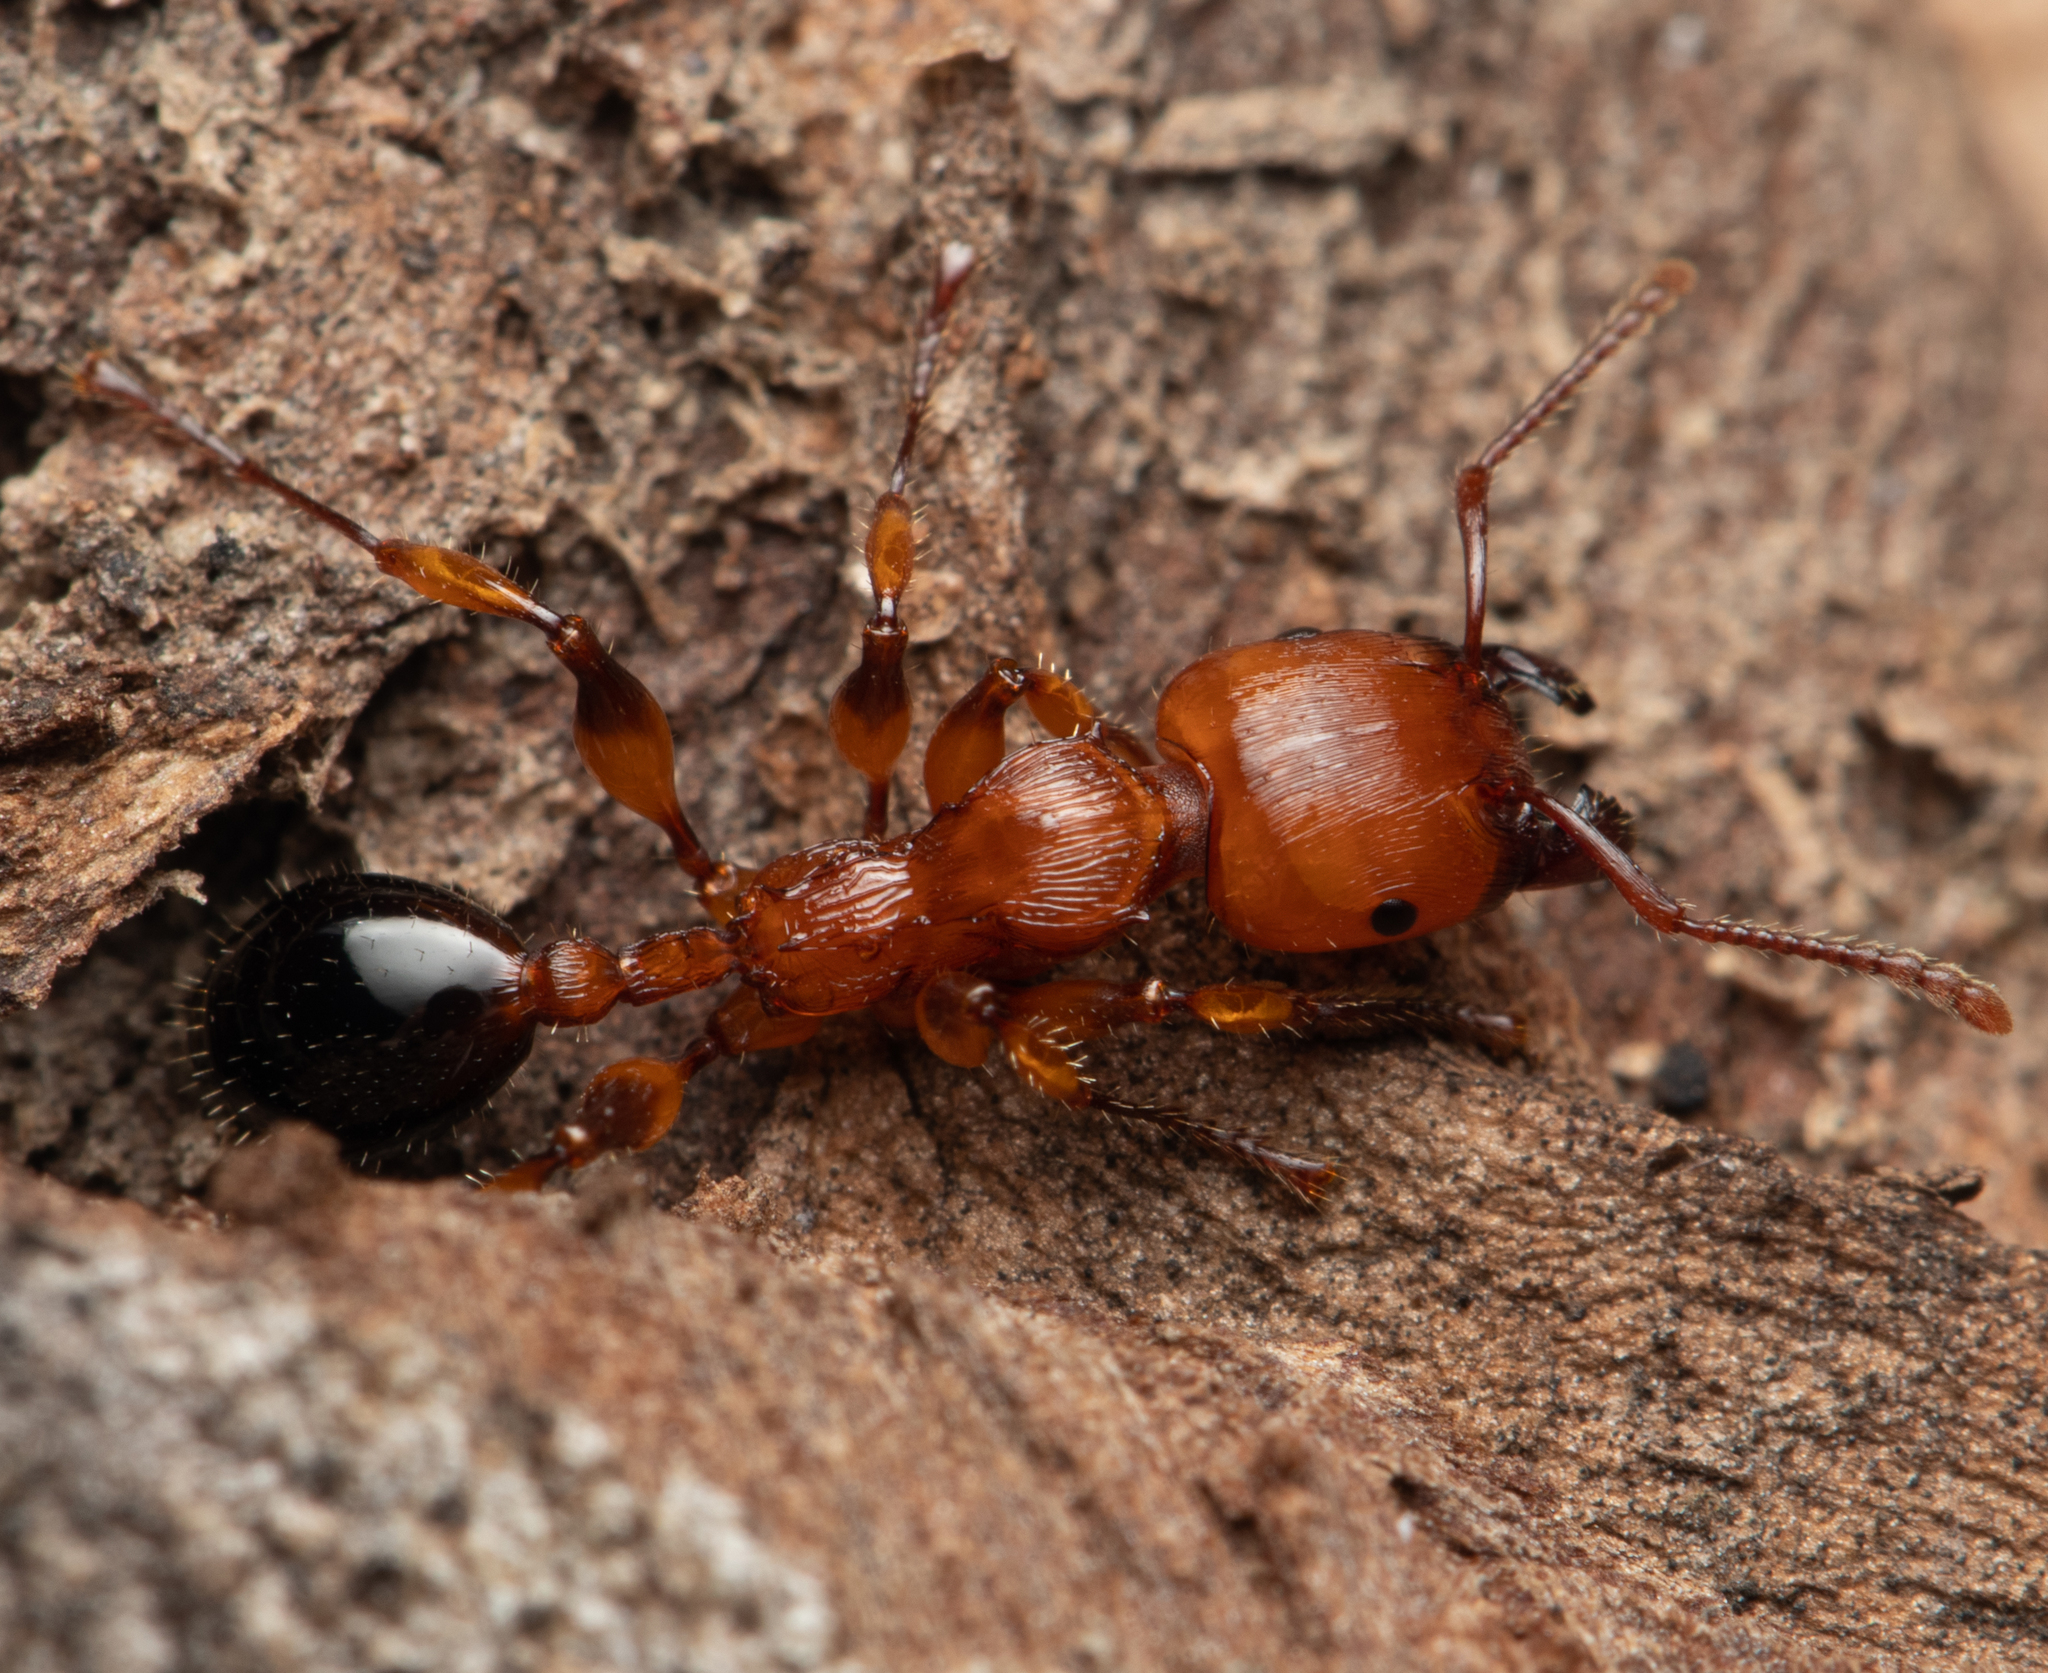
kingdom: Animalia
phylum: Arthropoda
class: Insecta
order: Hymenoptera
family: Formicidae
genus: Podomyrma
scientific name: Podomyrma gratiosa
